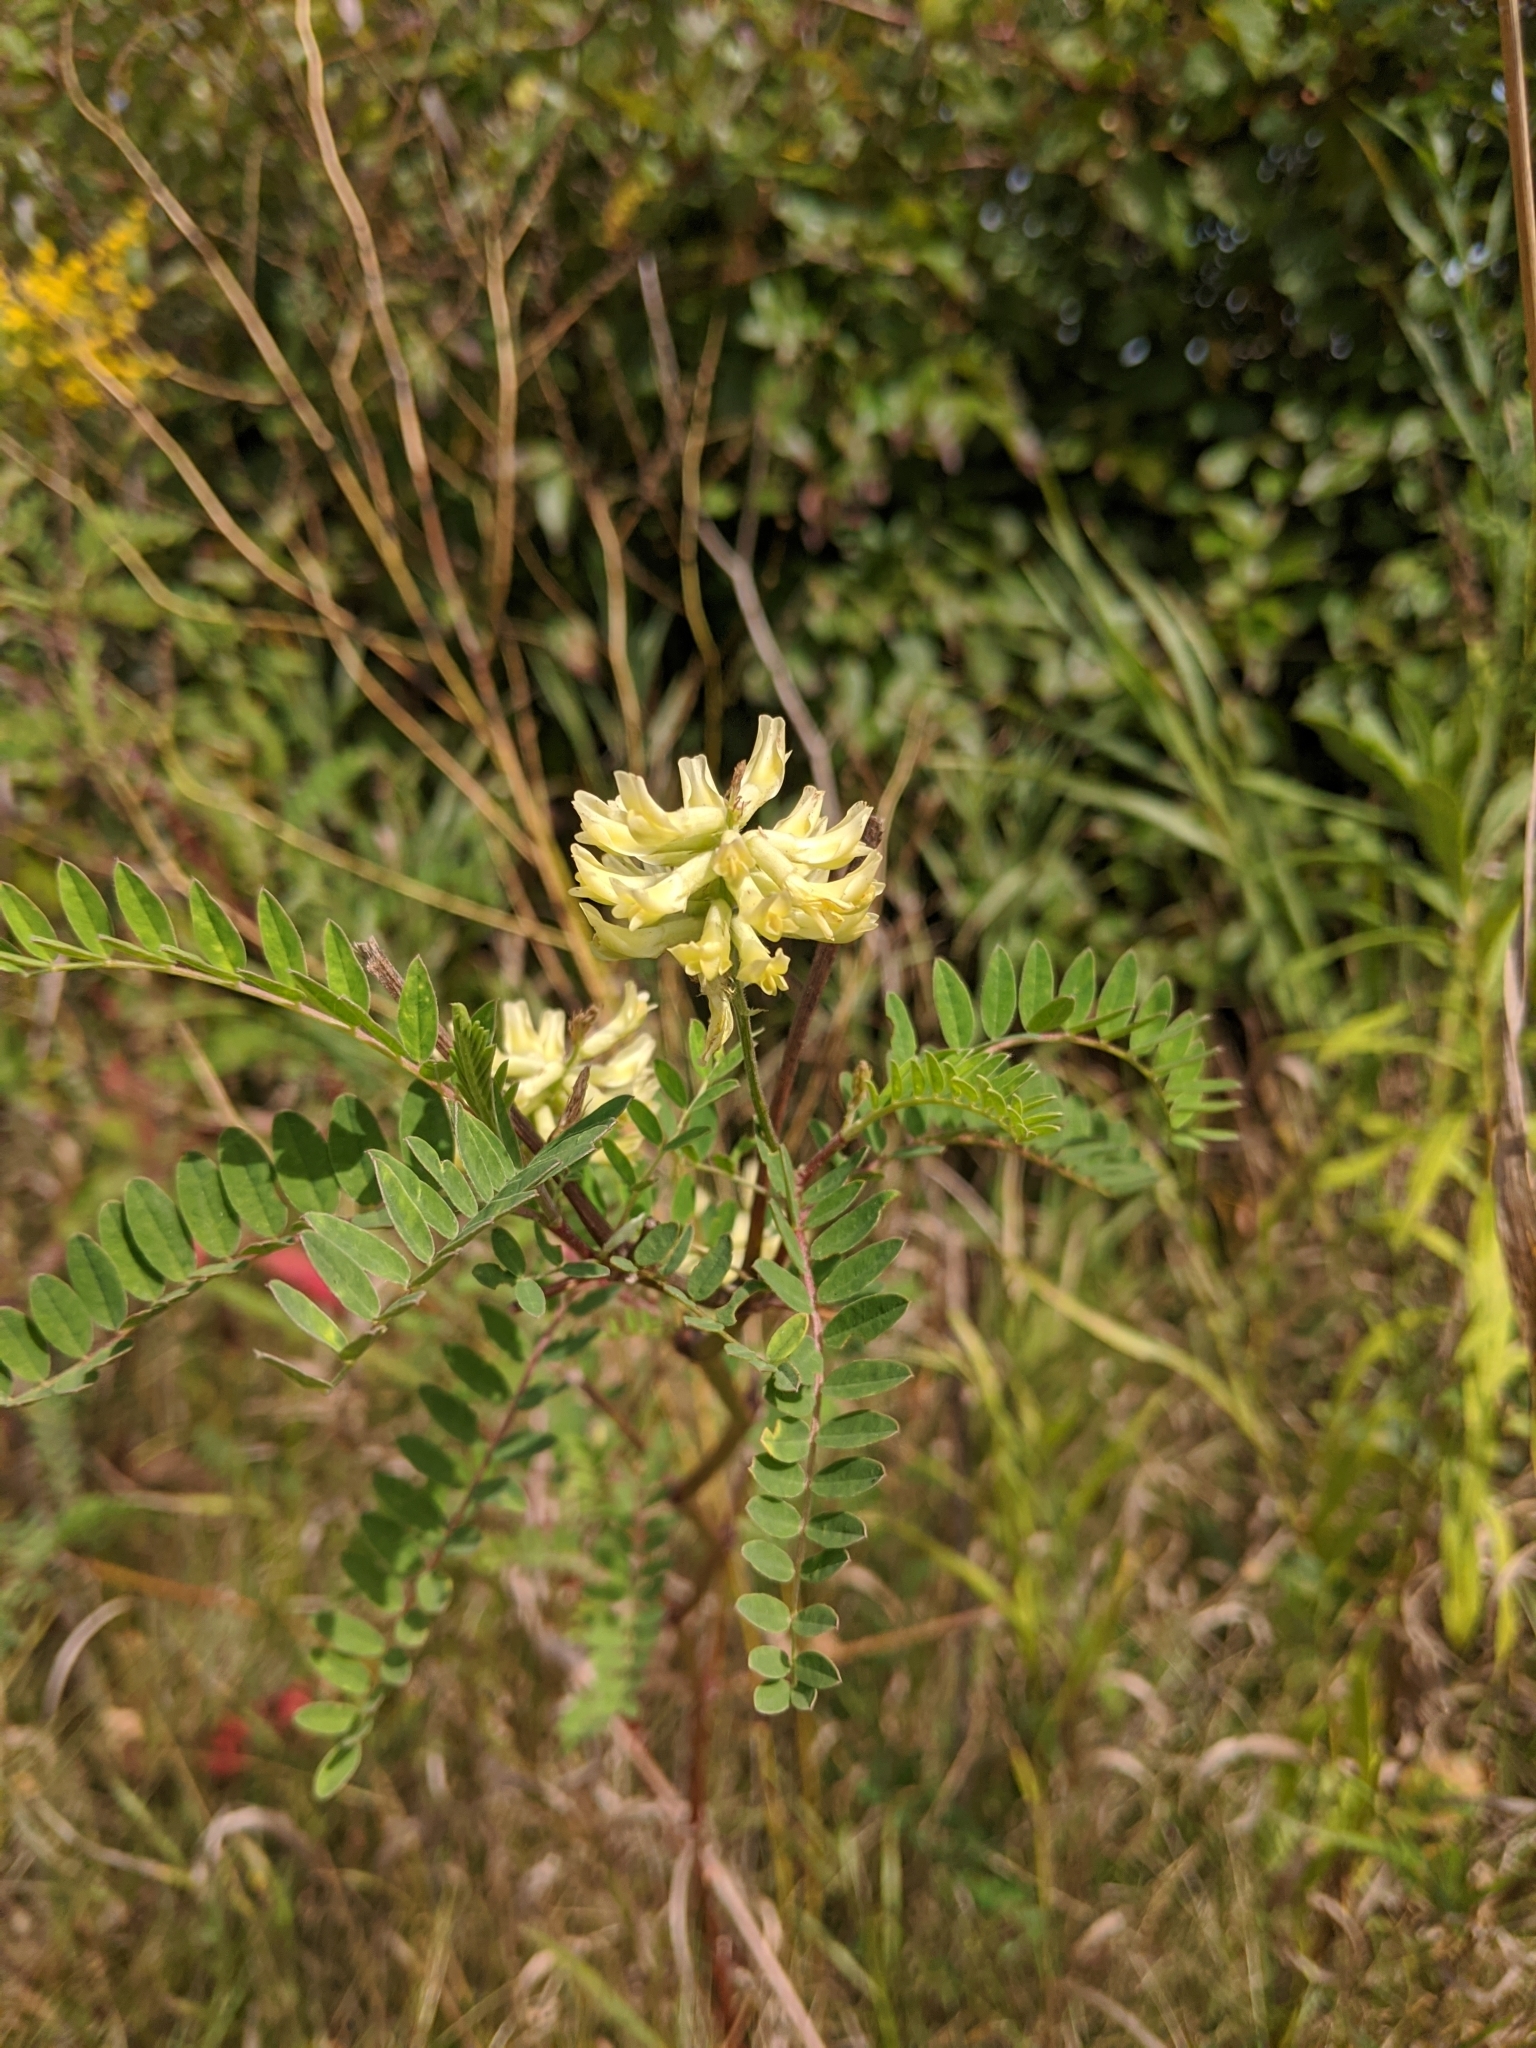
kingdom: Plantae
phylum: Tracheophyta
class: Magnoliopsida
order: Fabales
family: Fabaceae
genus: Astragalus
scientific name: Astragalus canadensis
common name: Canada milk-vetch
